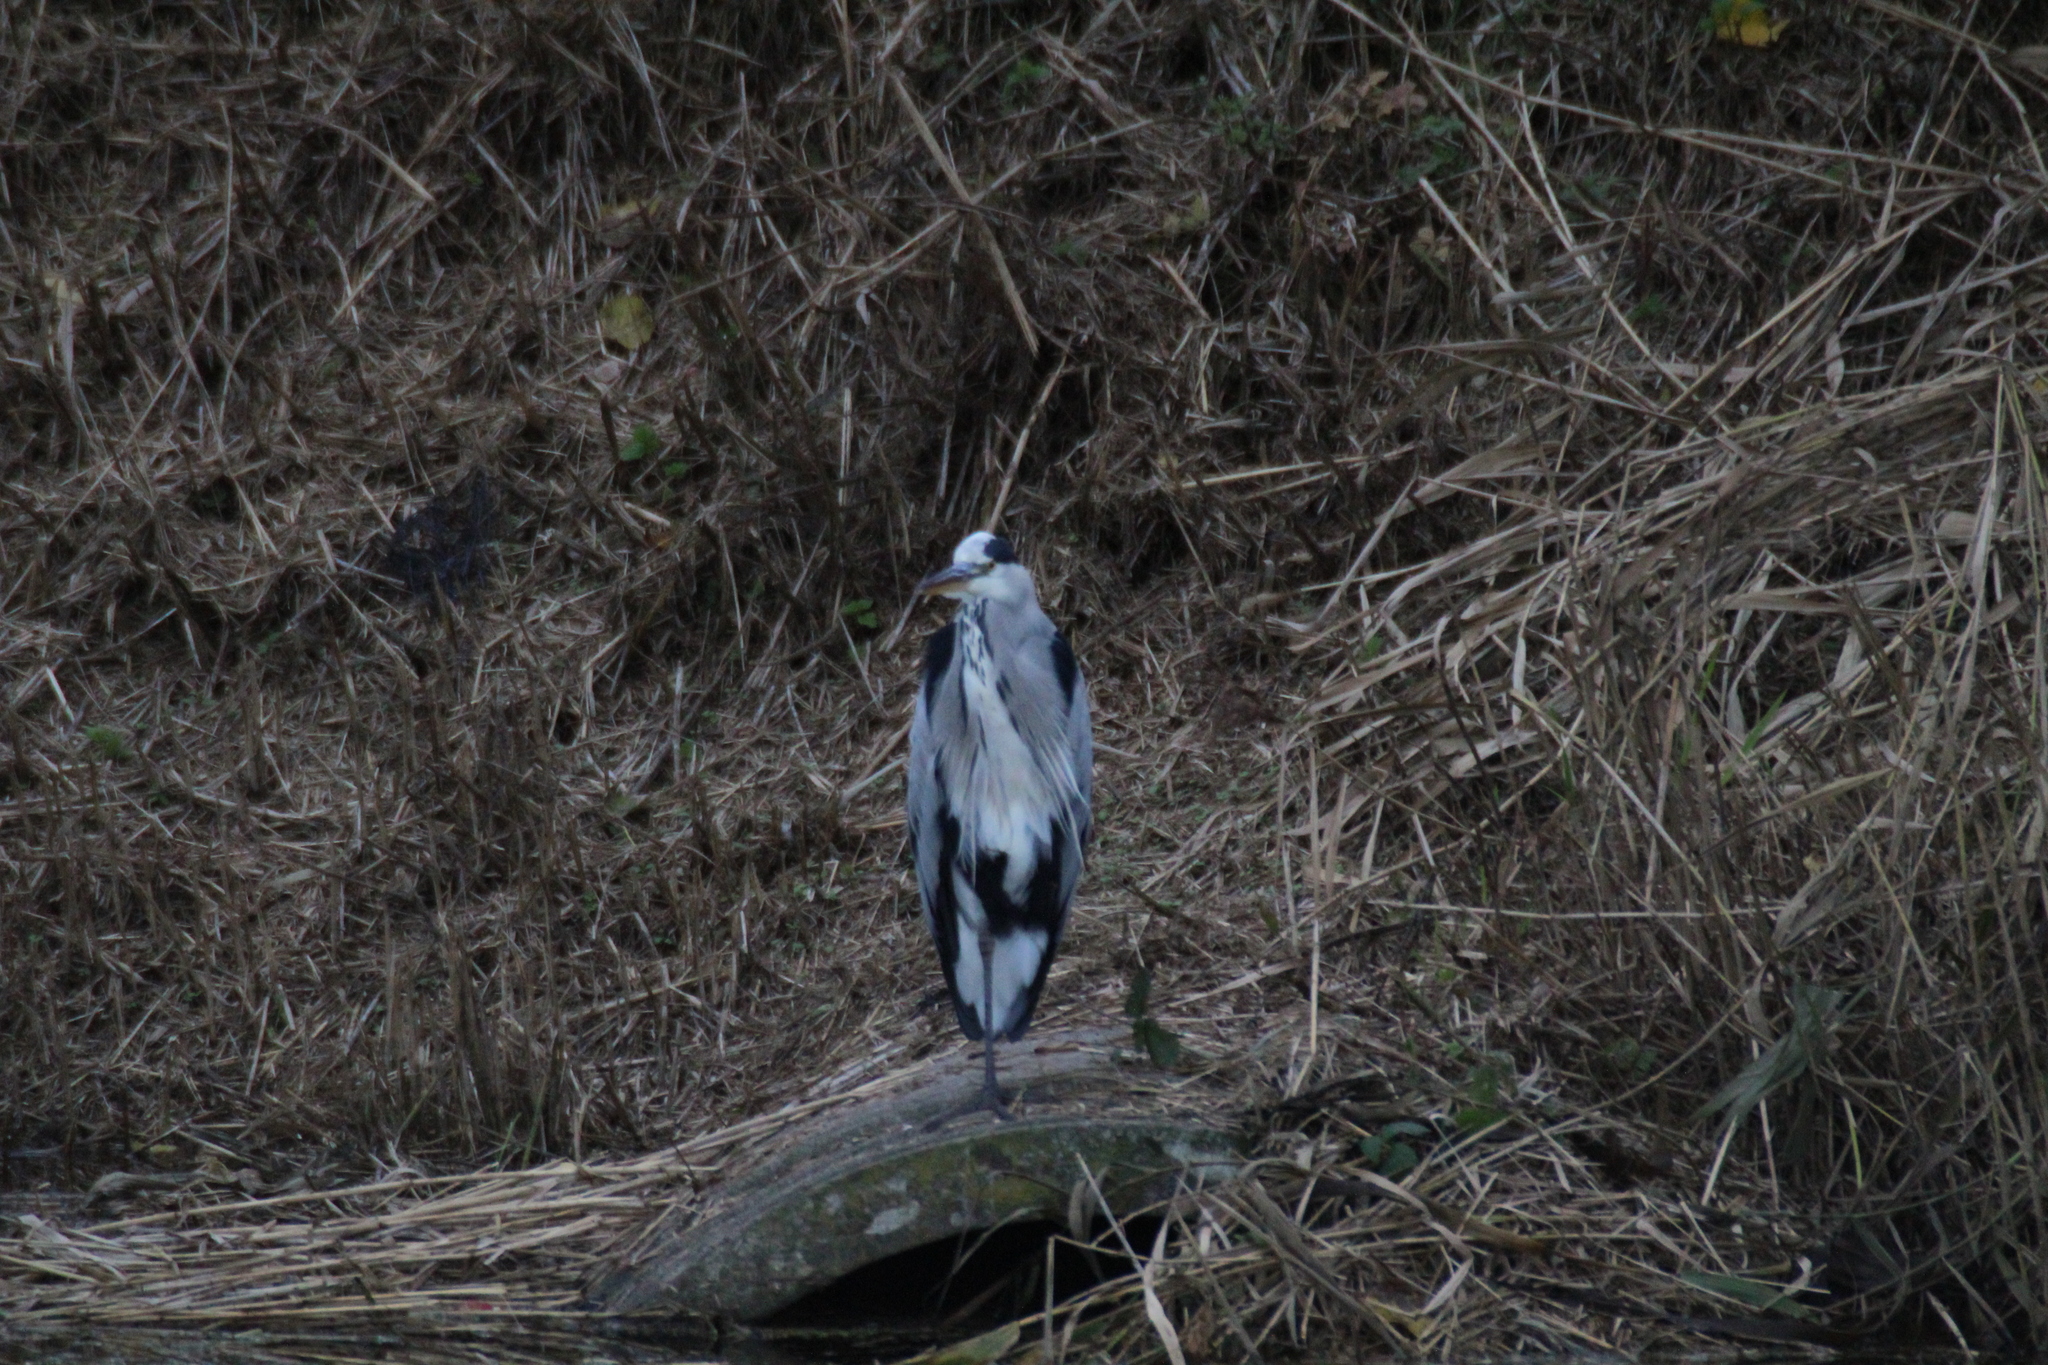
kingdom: Animalia
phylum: Chordata
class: Aves
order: Pelecaniformes
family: Ardeidae
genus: Ardea
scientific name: Ardea cinerea
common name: Grey heron
